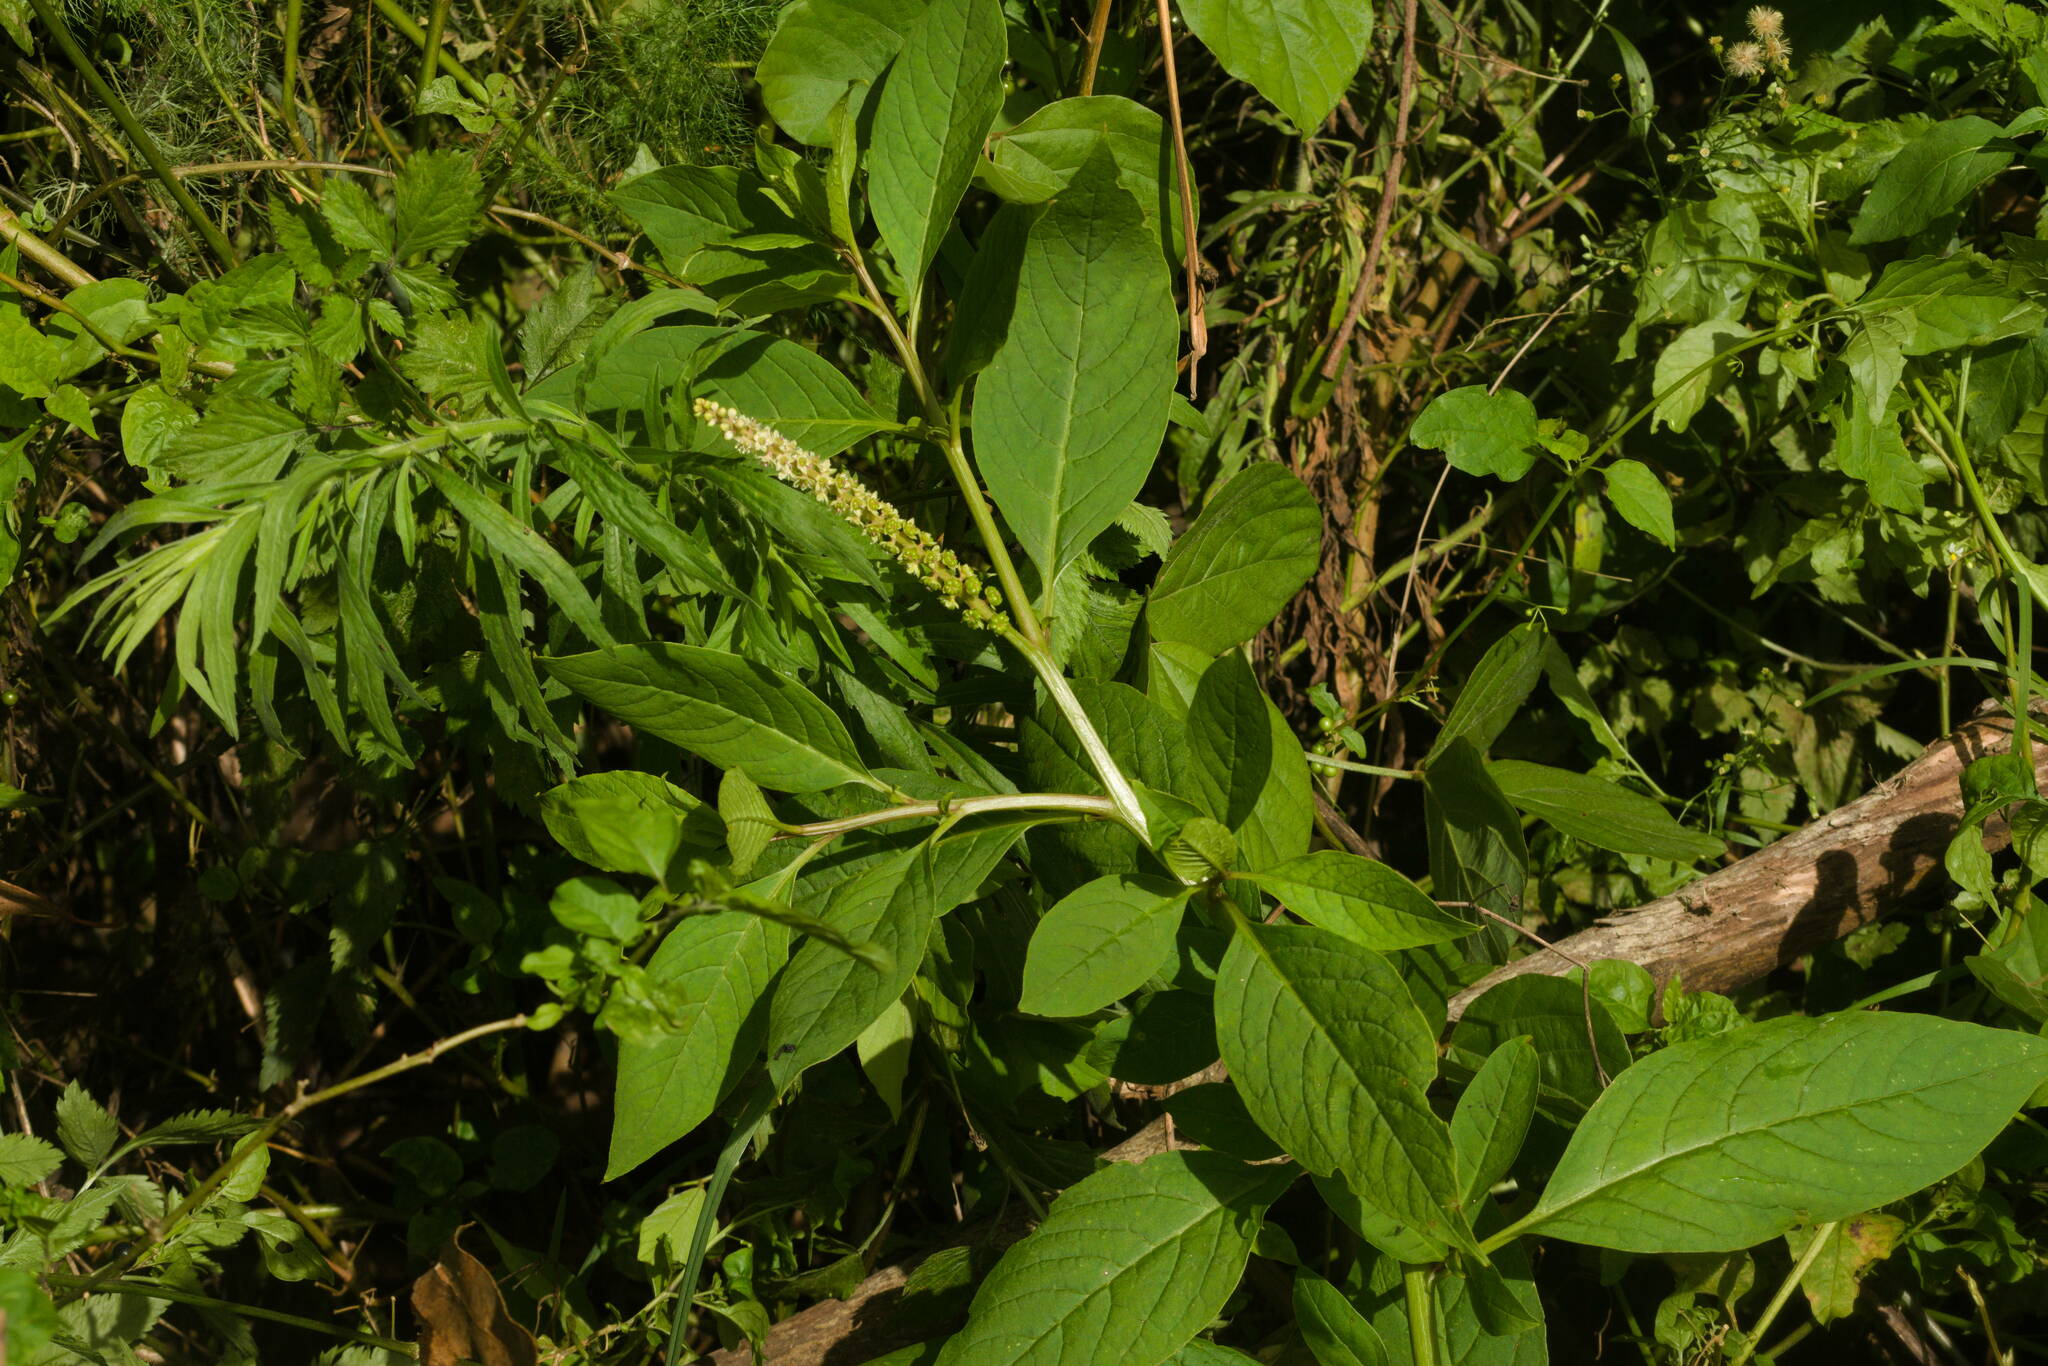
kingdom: Plantae
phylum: Tracheophyta
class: Magnoliopsida
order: Caryophyllales
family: Phytolaccaceae
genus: Phytolacca
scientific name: Phytolacca icosandra
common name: Button pokeweed
